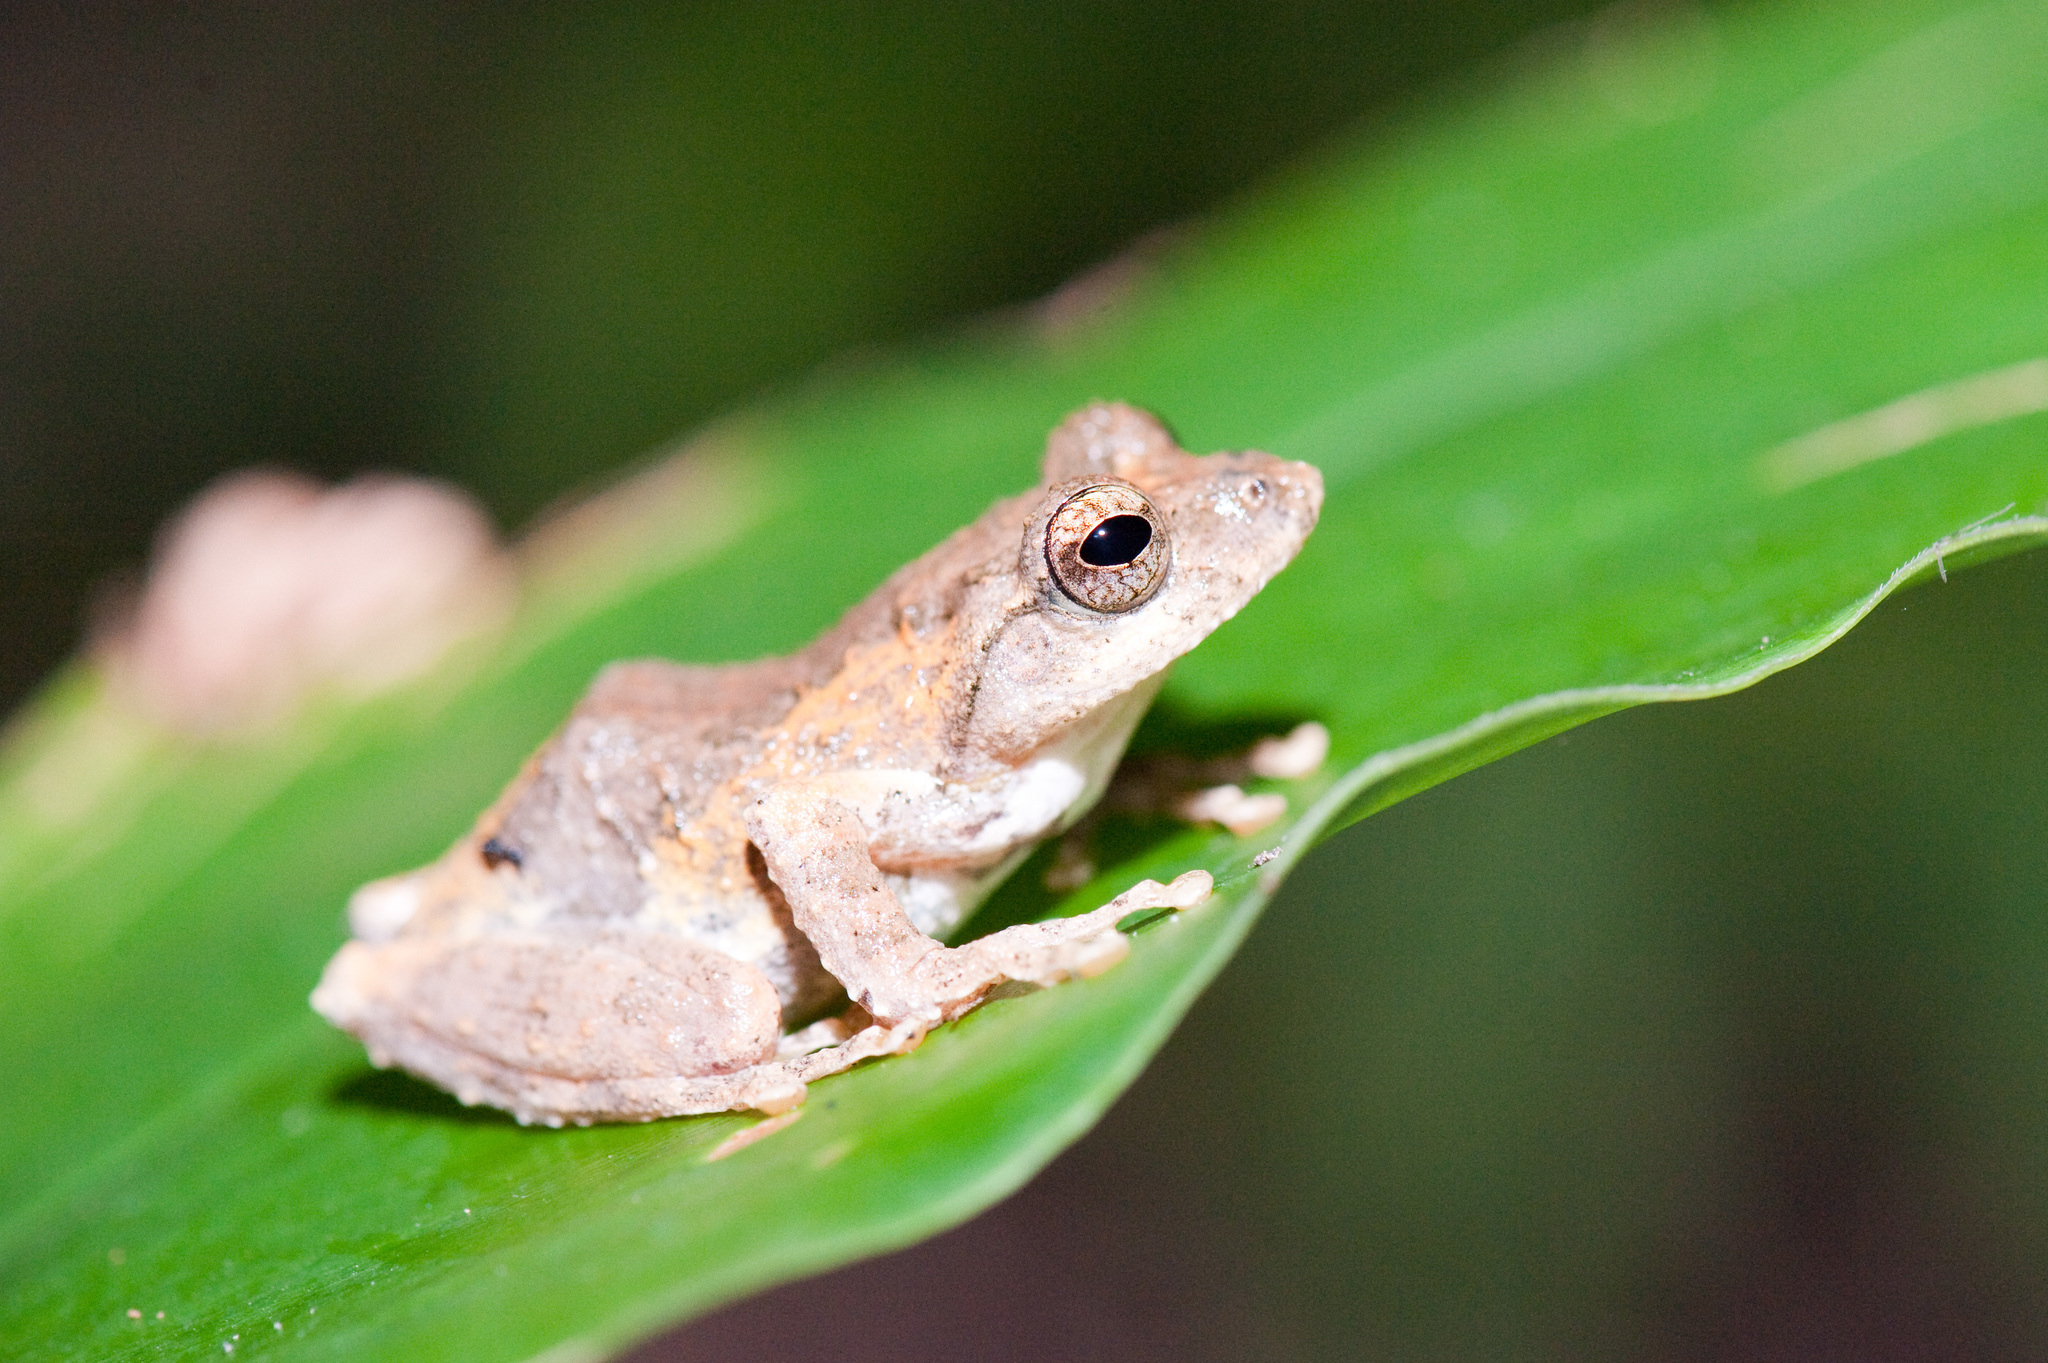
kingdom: Animalia
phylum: Chordata
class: Amphibia
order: Anura
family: Rhacophoridae
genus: Kurixalus
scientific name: Kurixalus idiootocus
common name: Temple treefrog
